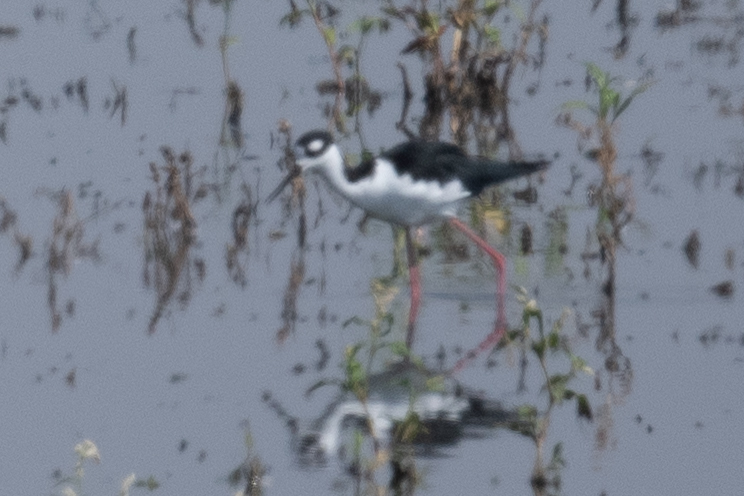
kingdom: Animalia
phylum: Chordata
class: Aves
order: Charadriiformes
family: Recurvirostridae
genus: Himantopus
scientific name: Himantopus mexicanus
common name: Black-necked stilt
